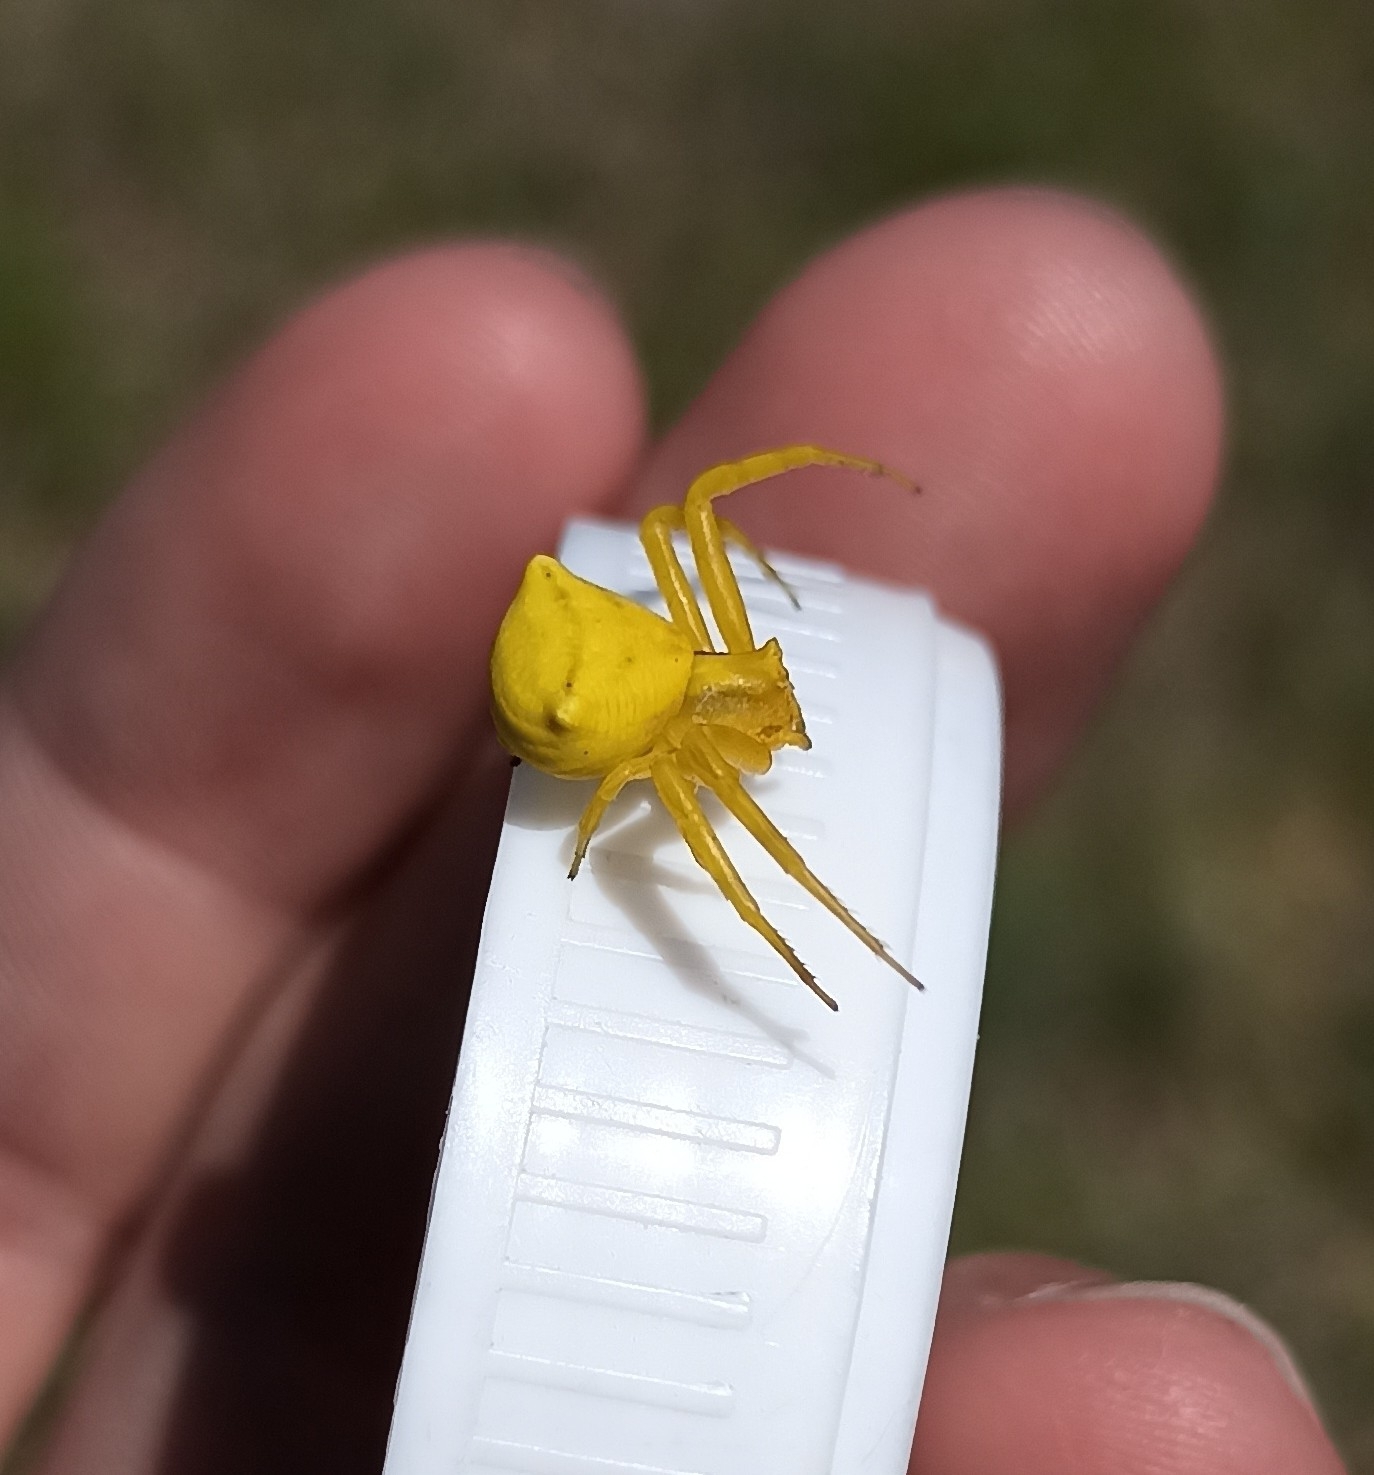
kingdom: Animalia
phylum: Arthropoda
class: Arachnida
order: Araneae
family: Thomisidae
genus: Thomisus
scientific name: Thomisus onustus
